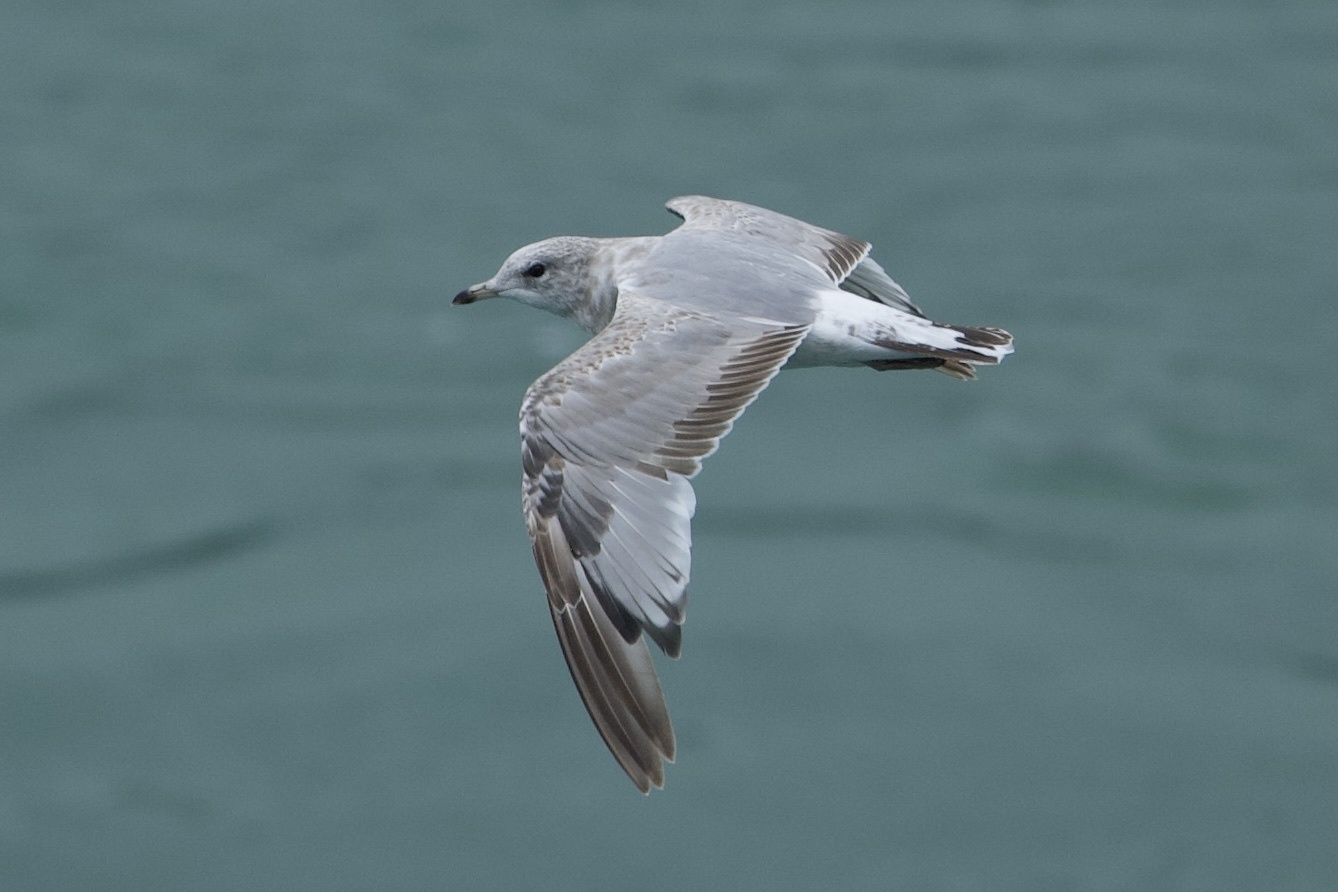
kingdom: Animalia
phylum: Chordata
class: Aves
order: Charadriiformes
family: Laridae
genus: Larus
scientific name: Larus brachyrhynchus
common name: Short-billed gull
